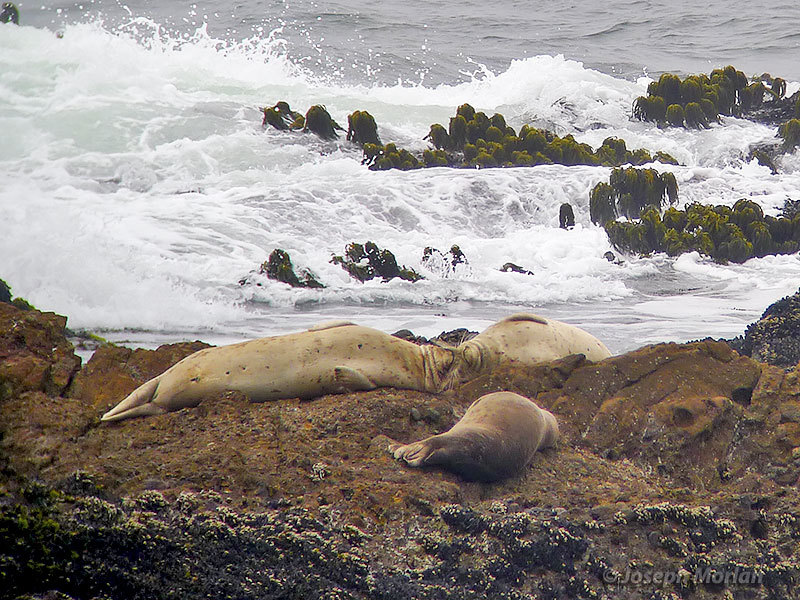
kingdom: Animalia
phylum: Chordata
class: Mammalia
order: Carnivora
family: Phocidae
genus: Phoca
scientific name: Phoca vitulina
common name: Harbor seal
